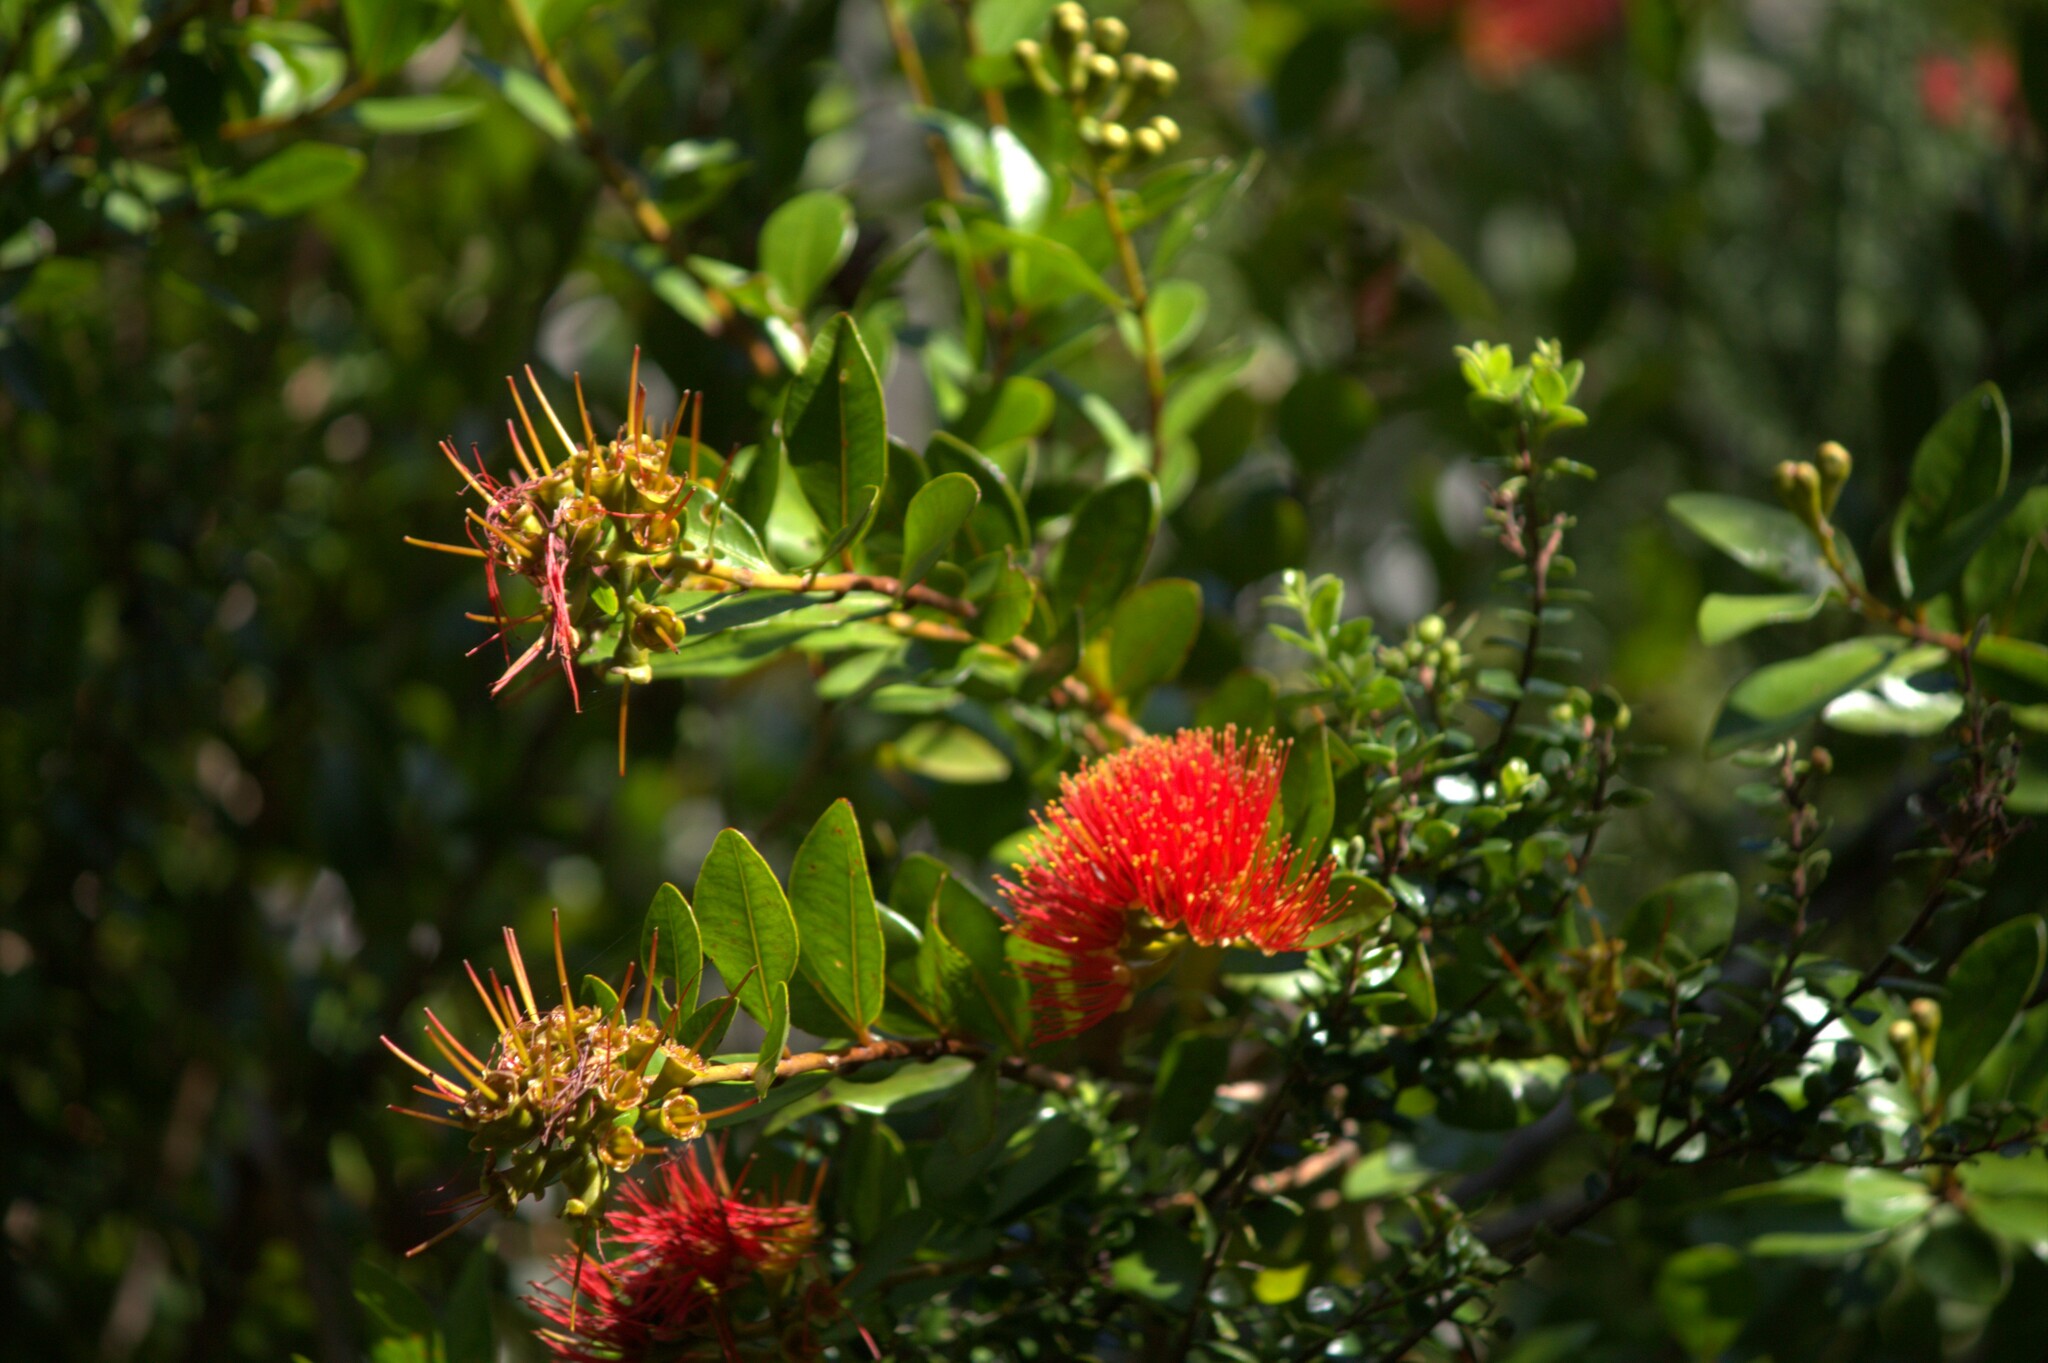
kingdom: Plantae
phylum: Tracheophyta
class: Magnoliopsida
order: Myrtales
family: Myrtaceae
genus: Metrosideros
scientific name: Metrosideros fulgens
